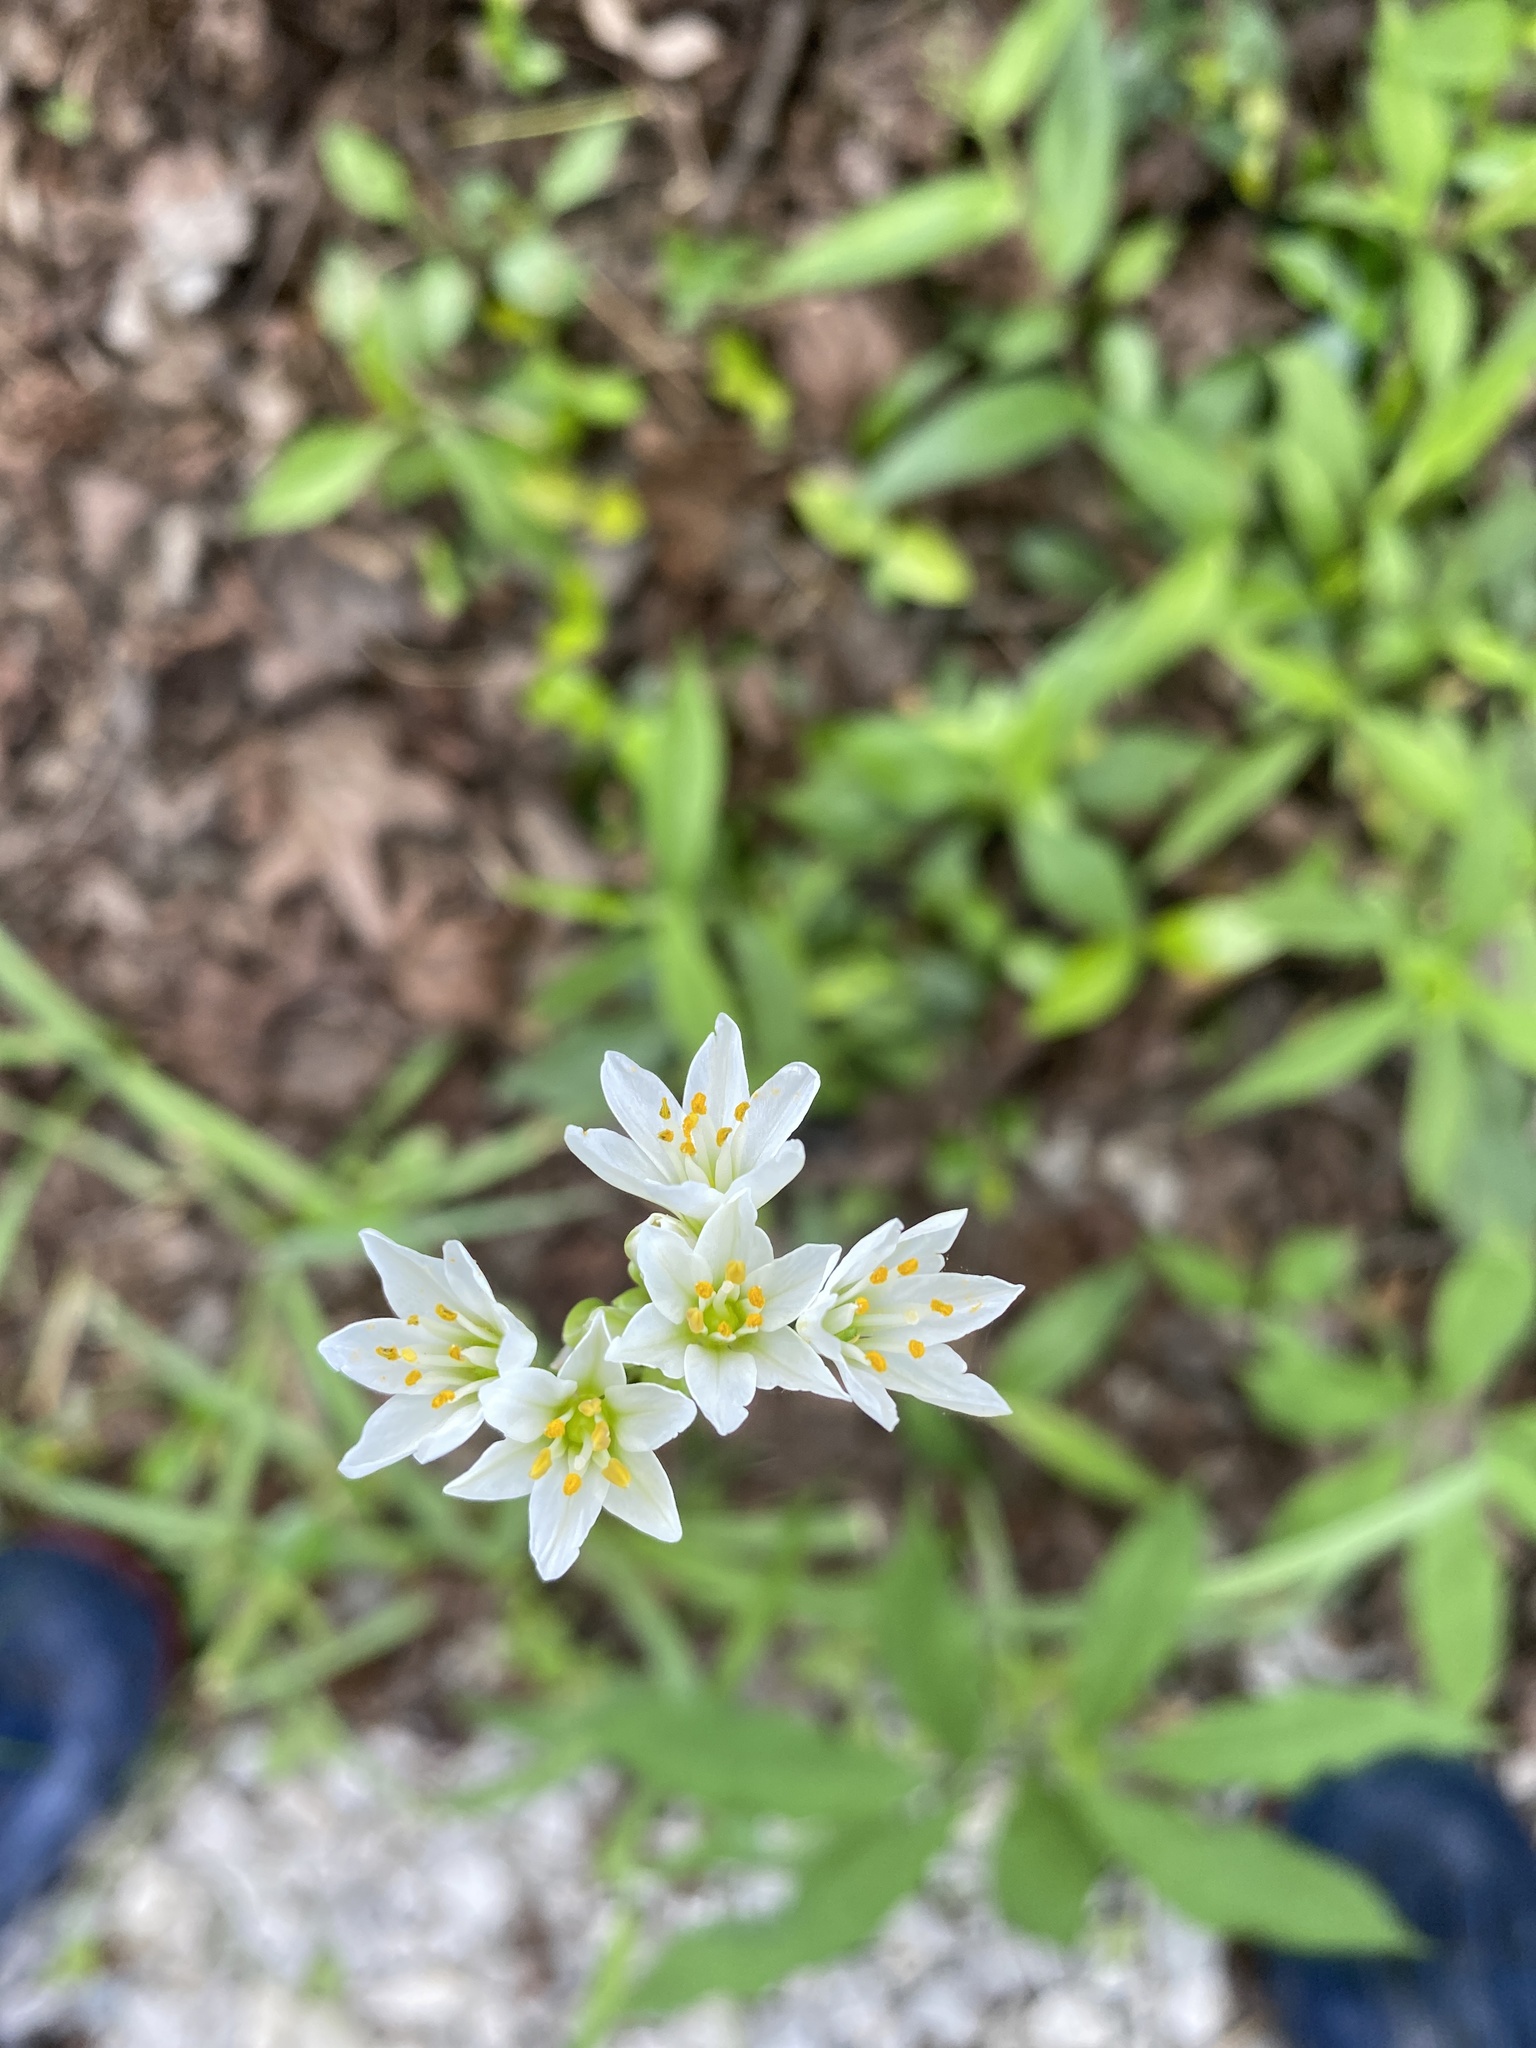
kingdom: Plantae
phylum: Tracheophyta
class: Liliopsida
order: Asparagales
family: Amaryllidaceae
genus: Nothoscordum
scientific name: Nothoscordum bivalve
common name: Crow-poison
